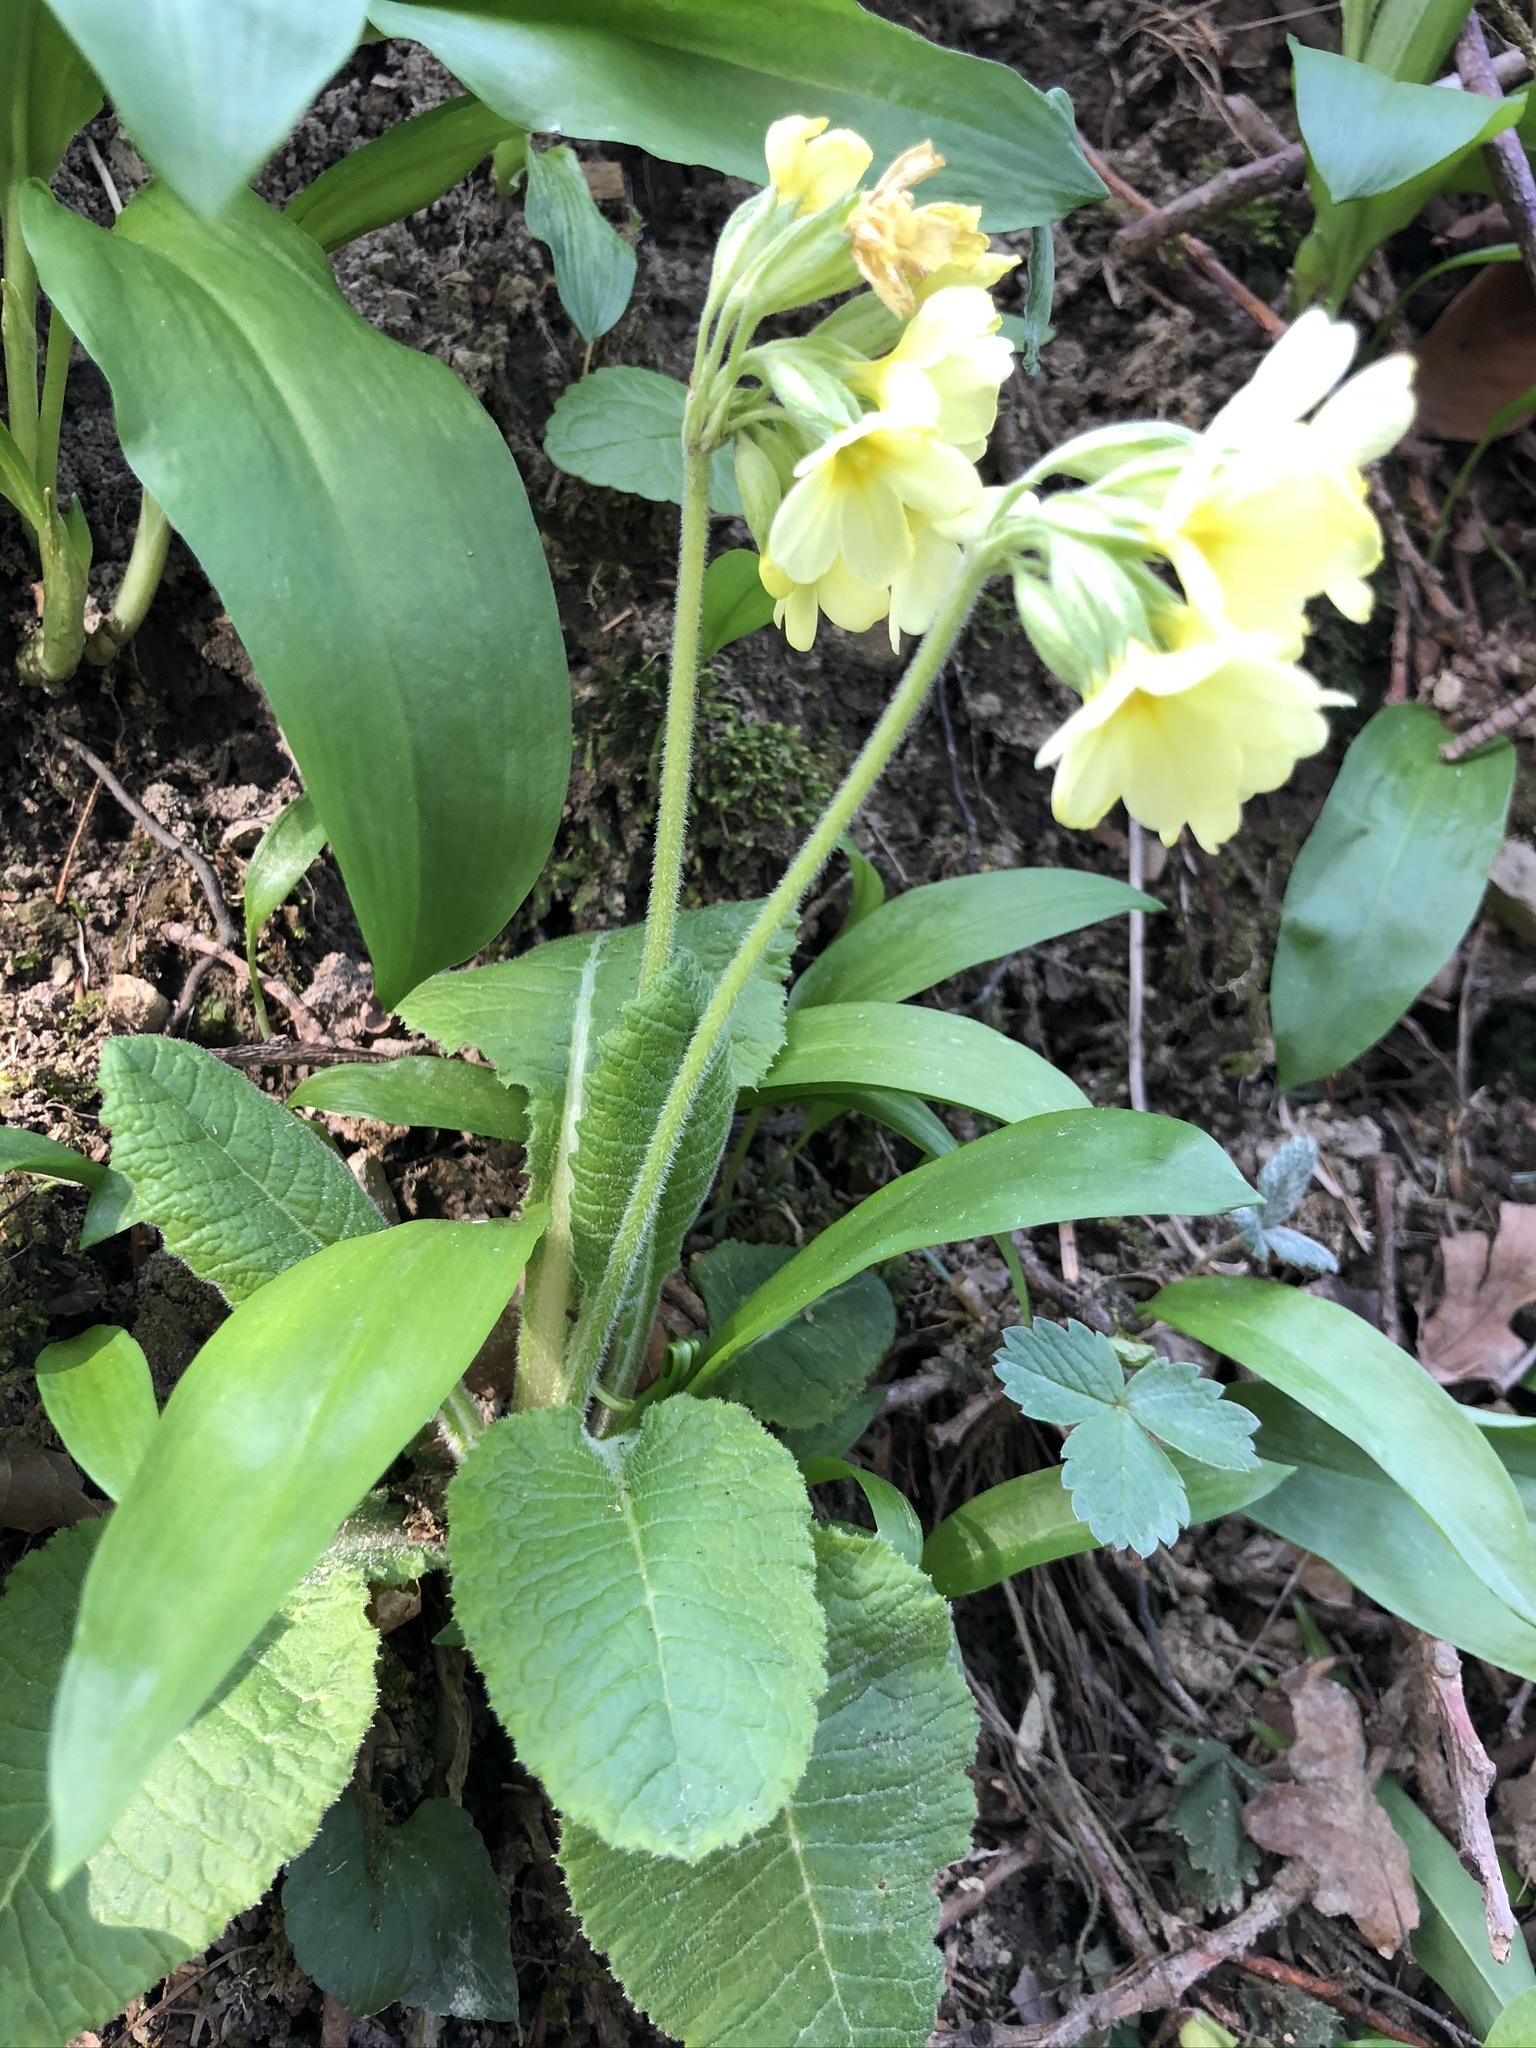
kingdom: Plantae
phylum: Tracheophyta
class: Magnoliopsida
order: Ericales
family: Primulaceae
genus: Primula
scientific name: Primula elatior
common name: Oxlip
